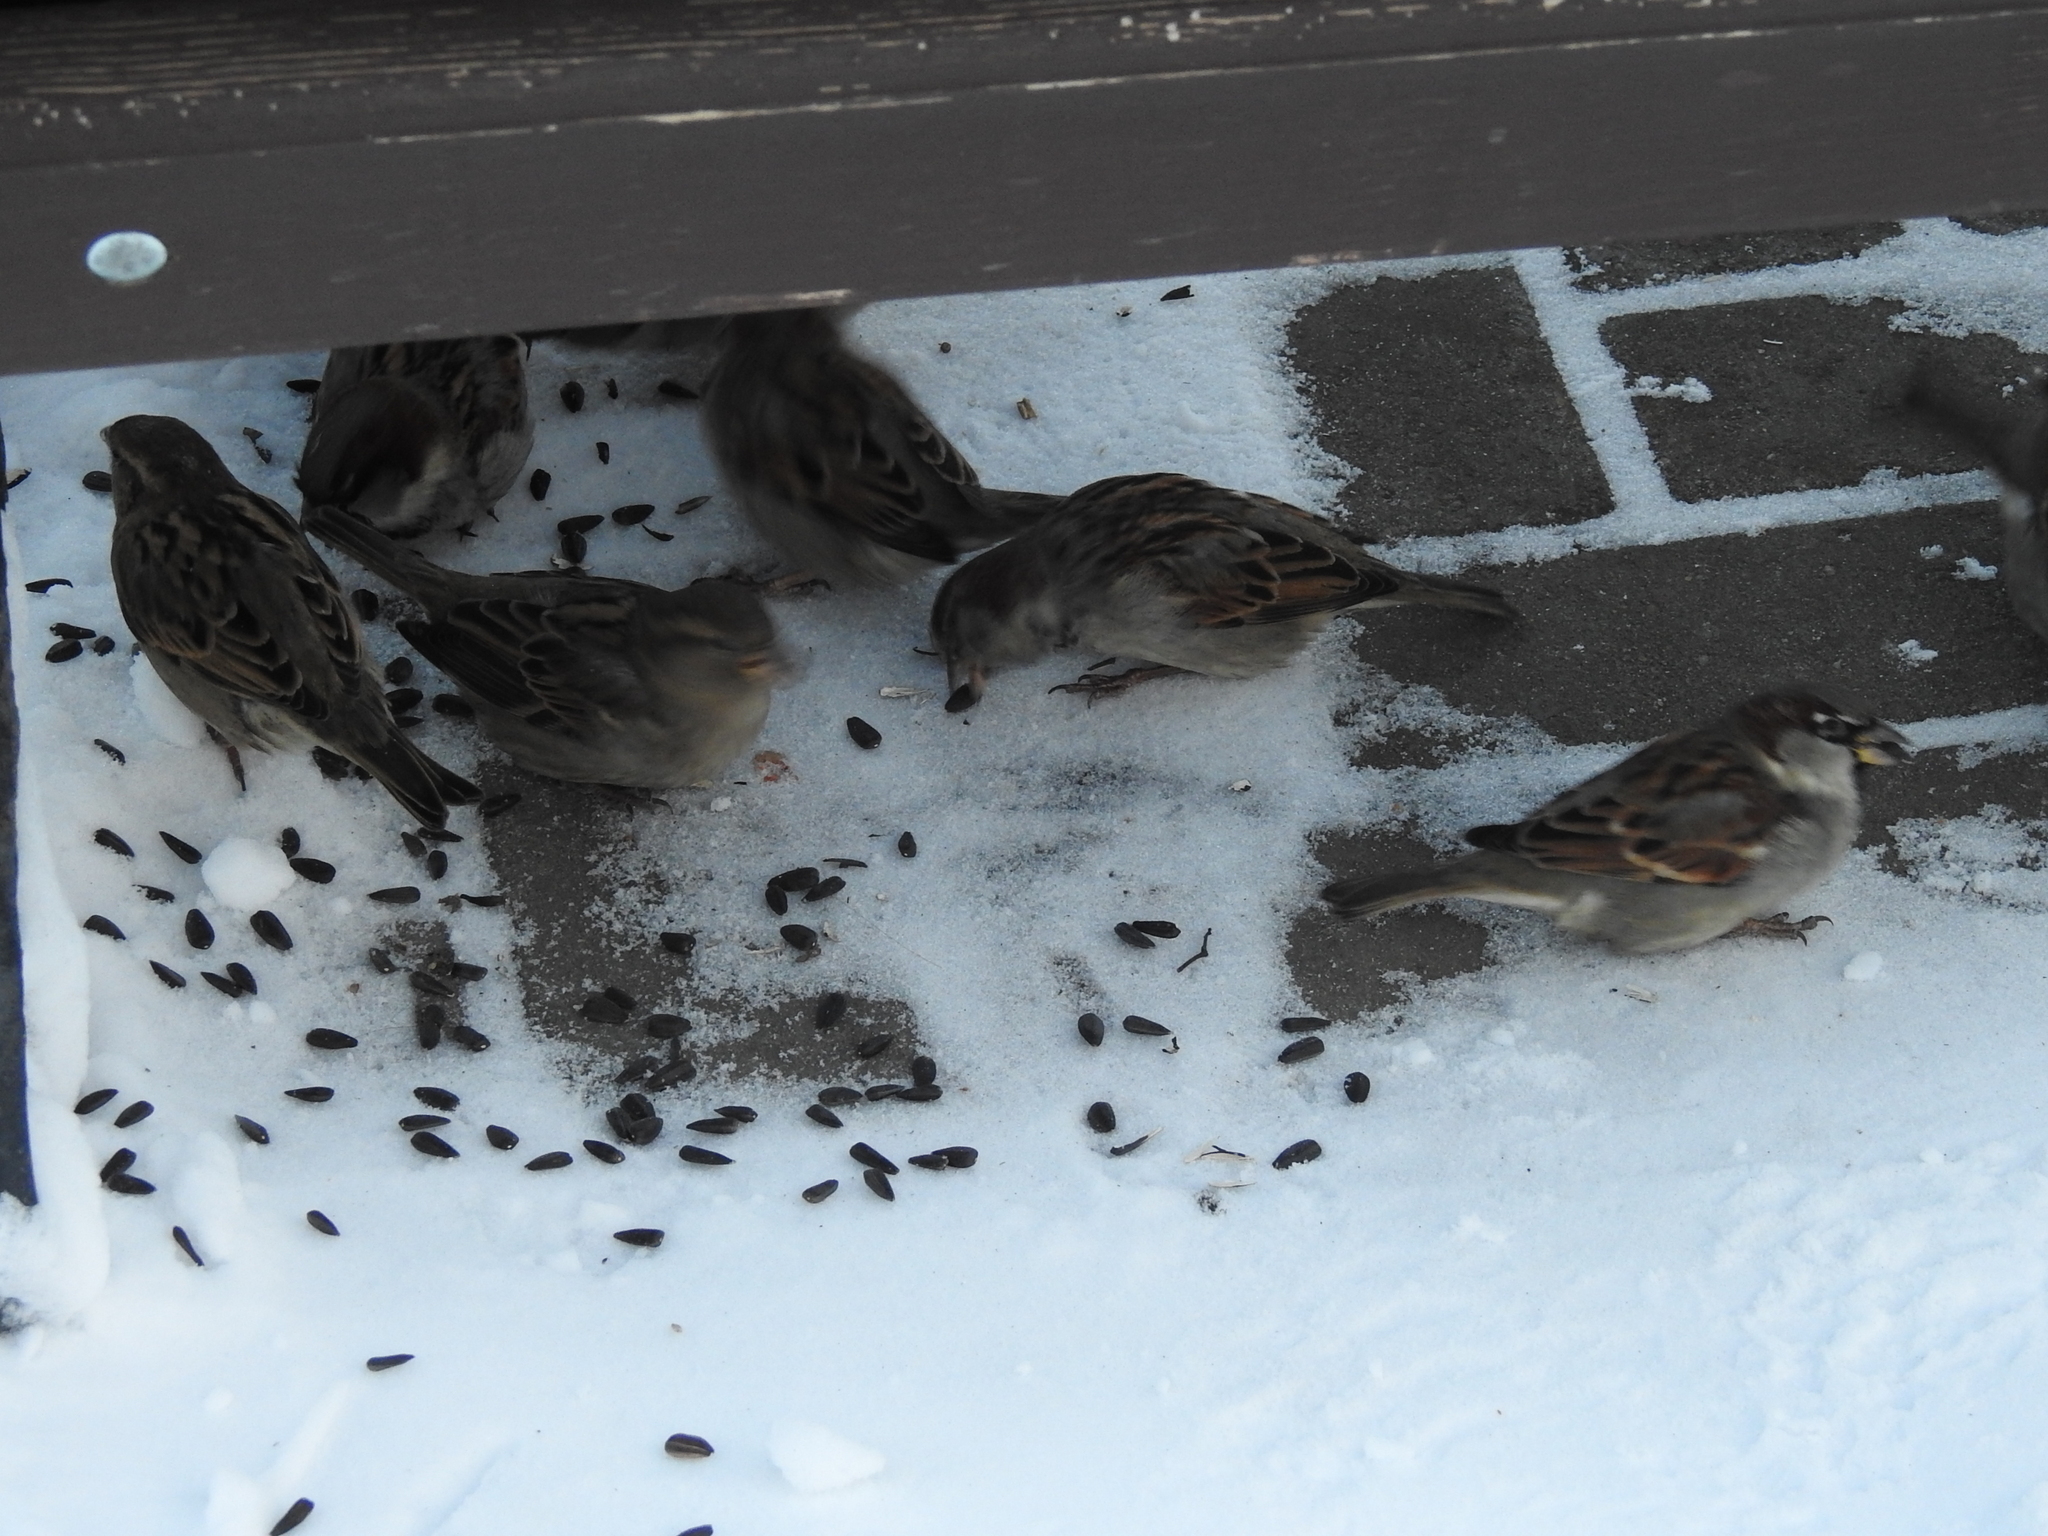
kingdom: Animalia
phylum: Chordata
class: Aves
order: Passeriformes
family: Passeridae
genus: Passer
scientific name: Passer domesticus
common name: House sparrow
